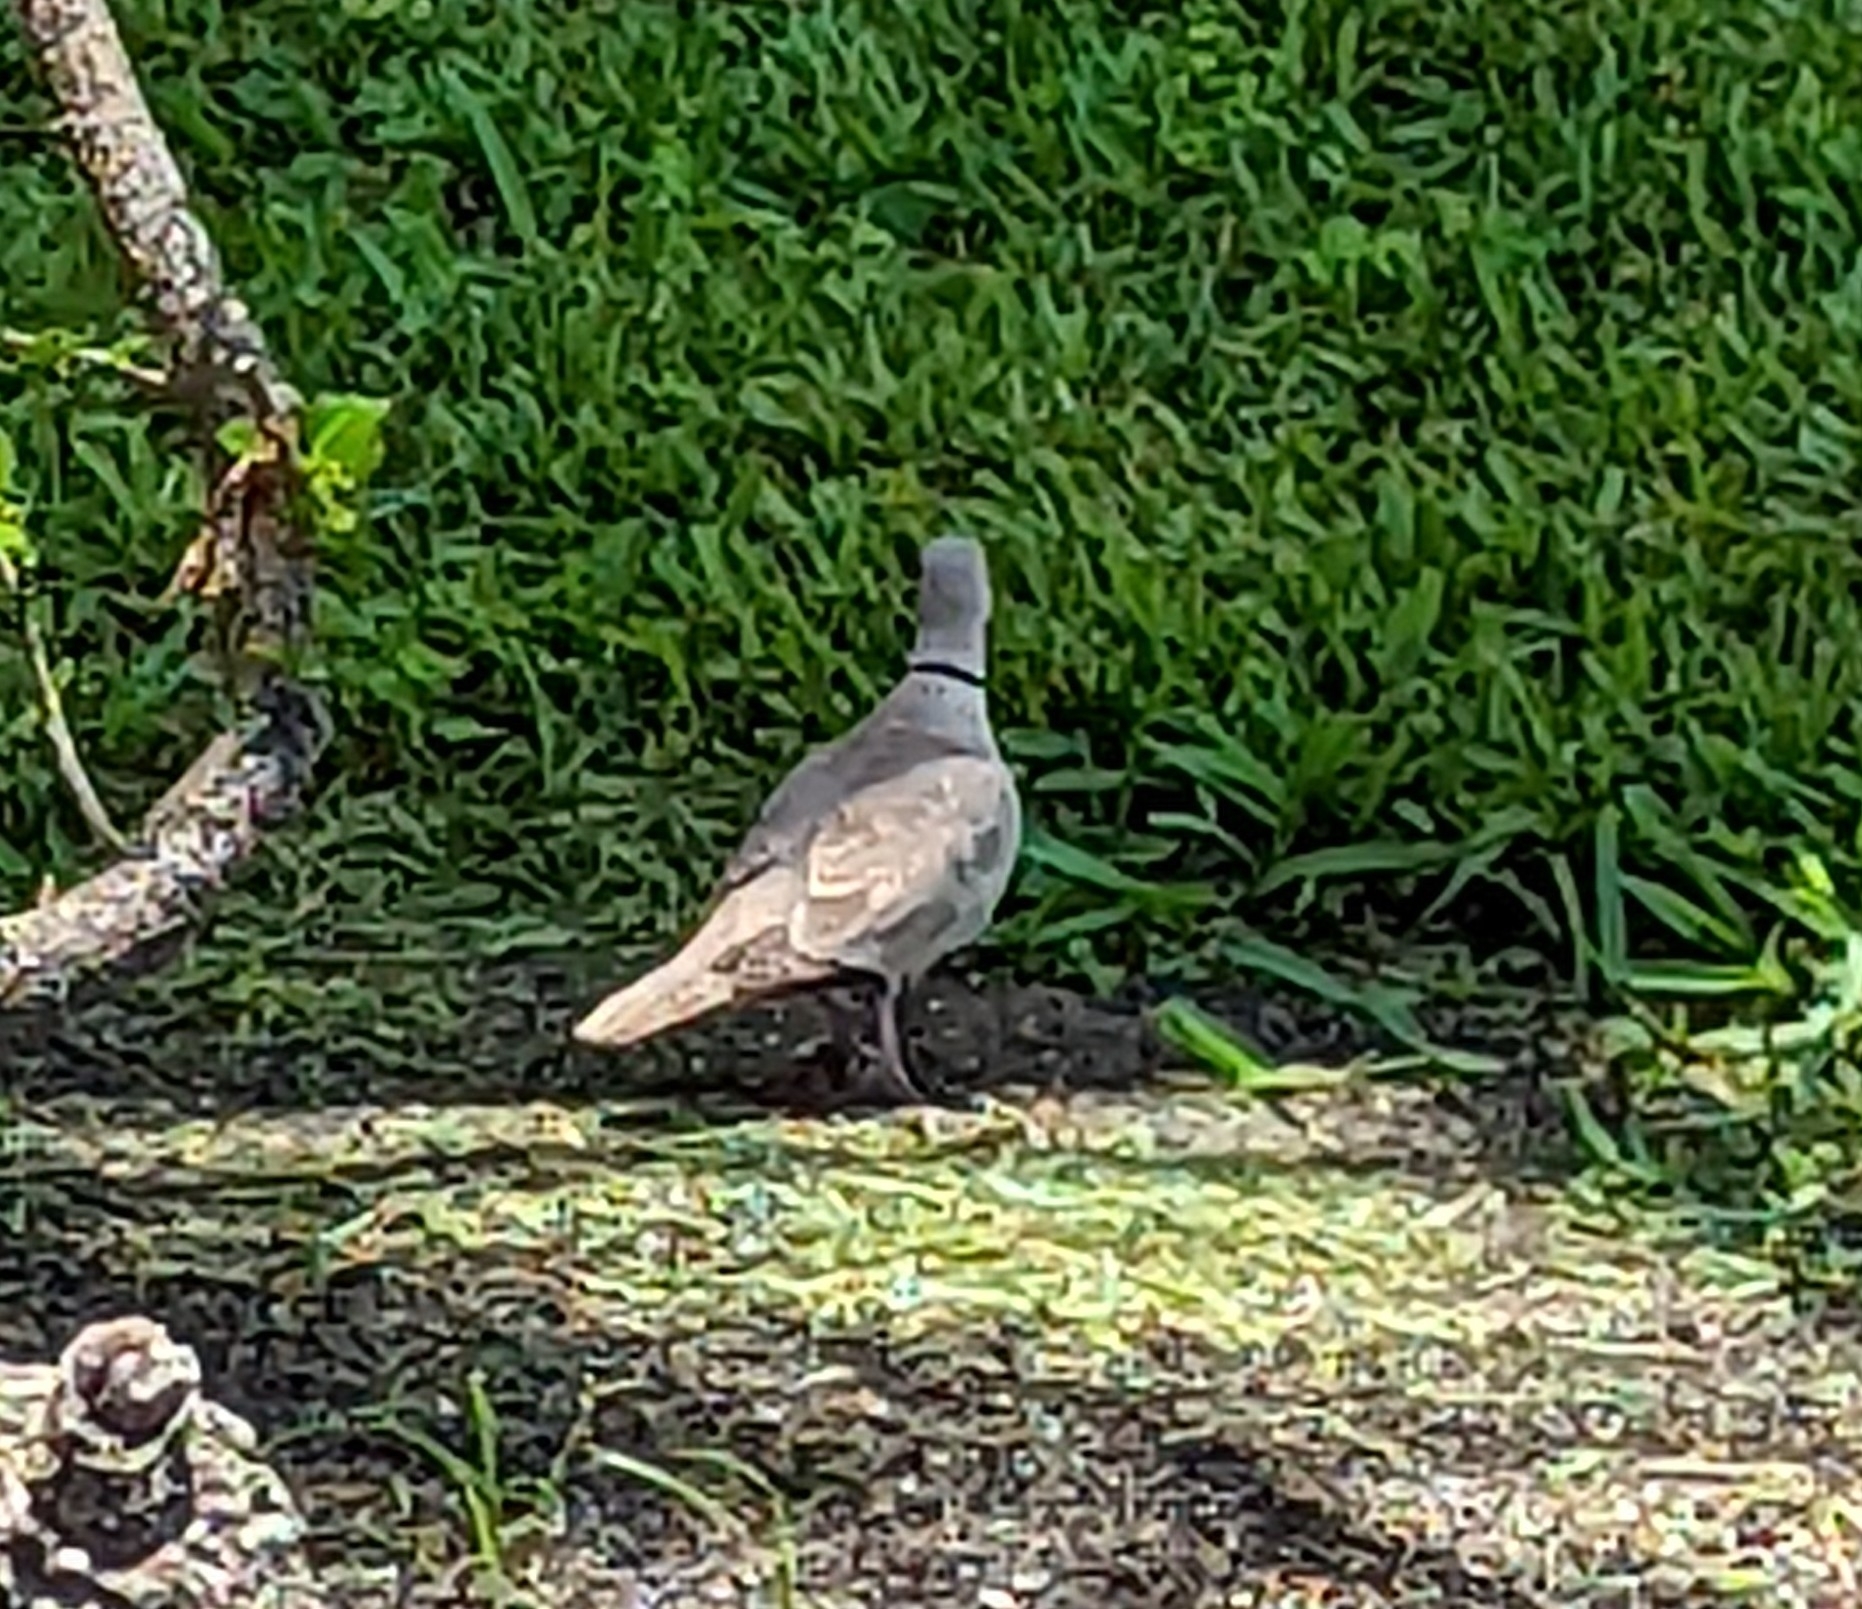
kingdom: Animalia
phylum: Chordata
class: Aves
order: Columbiformes
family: Columbidae
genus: Streptopelia
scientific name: Streptopelia decaocto
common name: Eurasian collared dove
